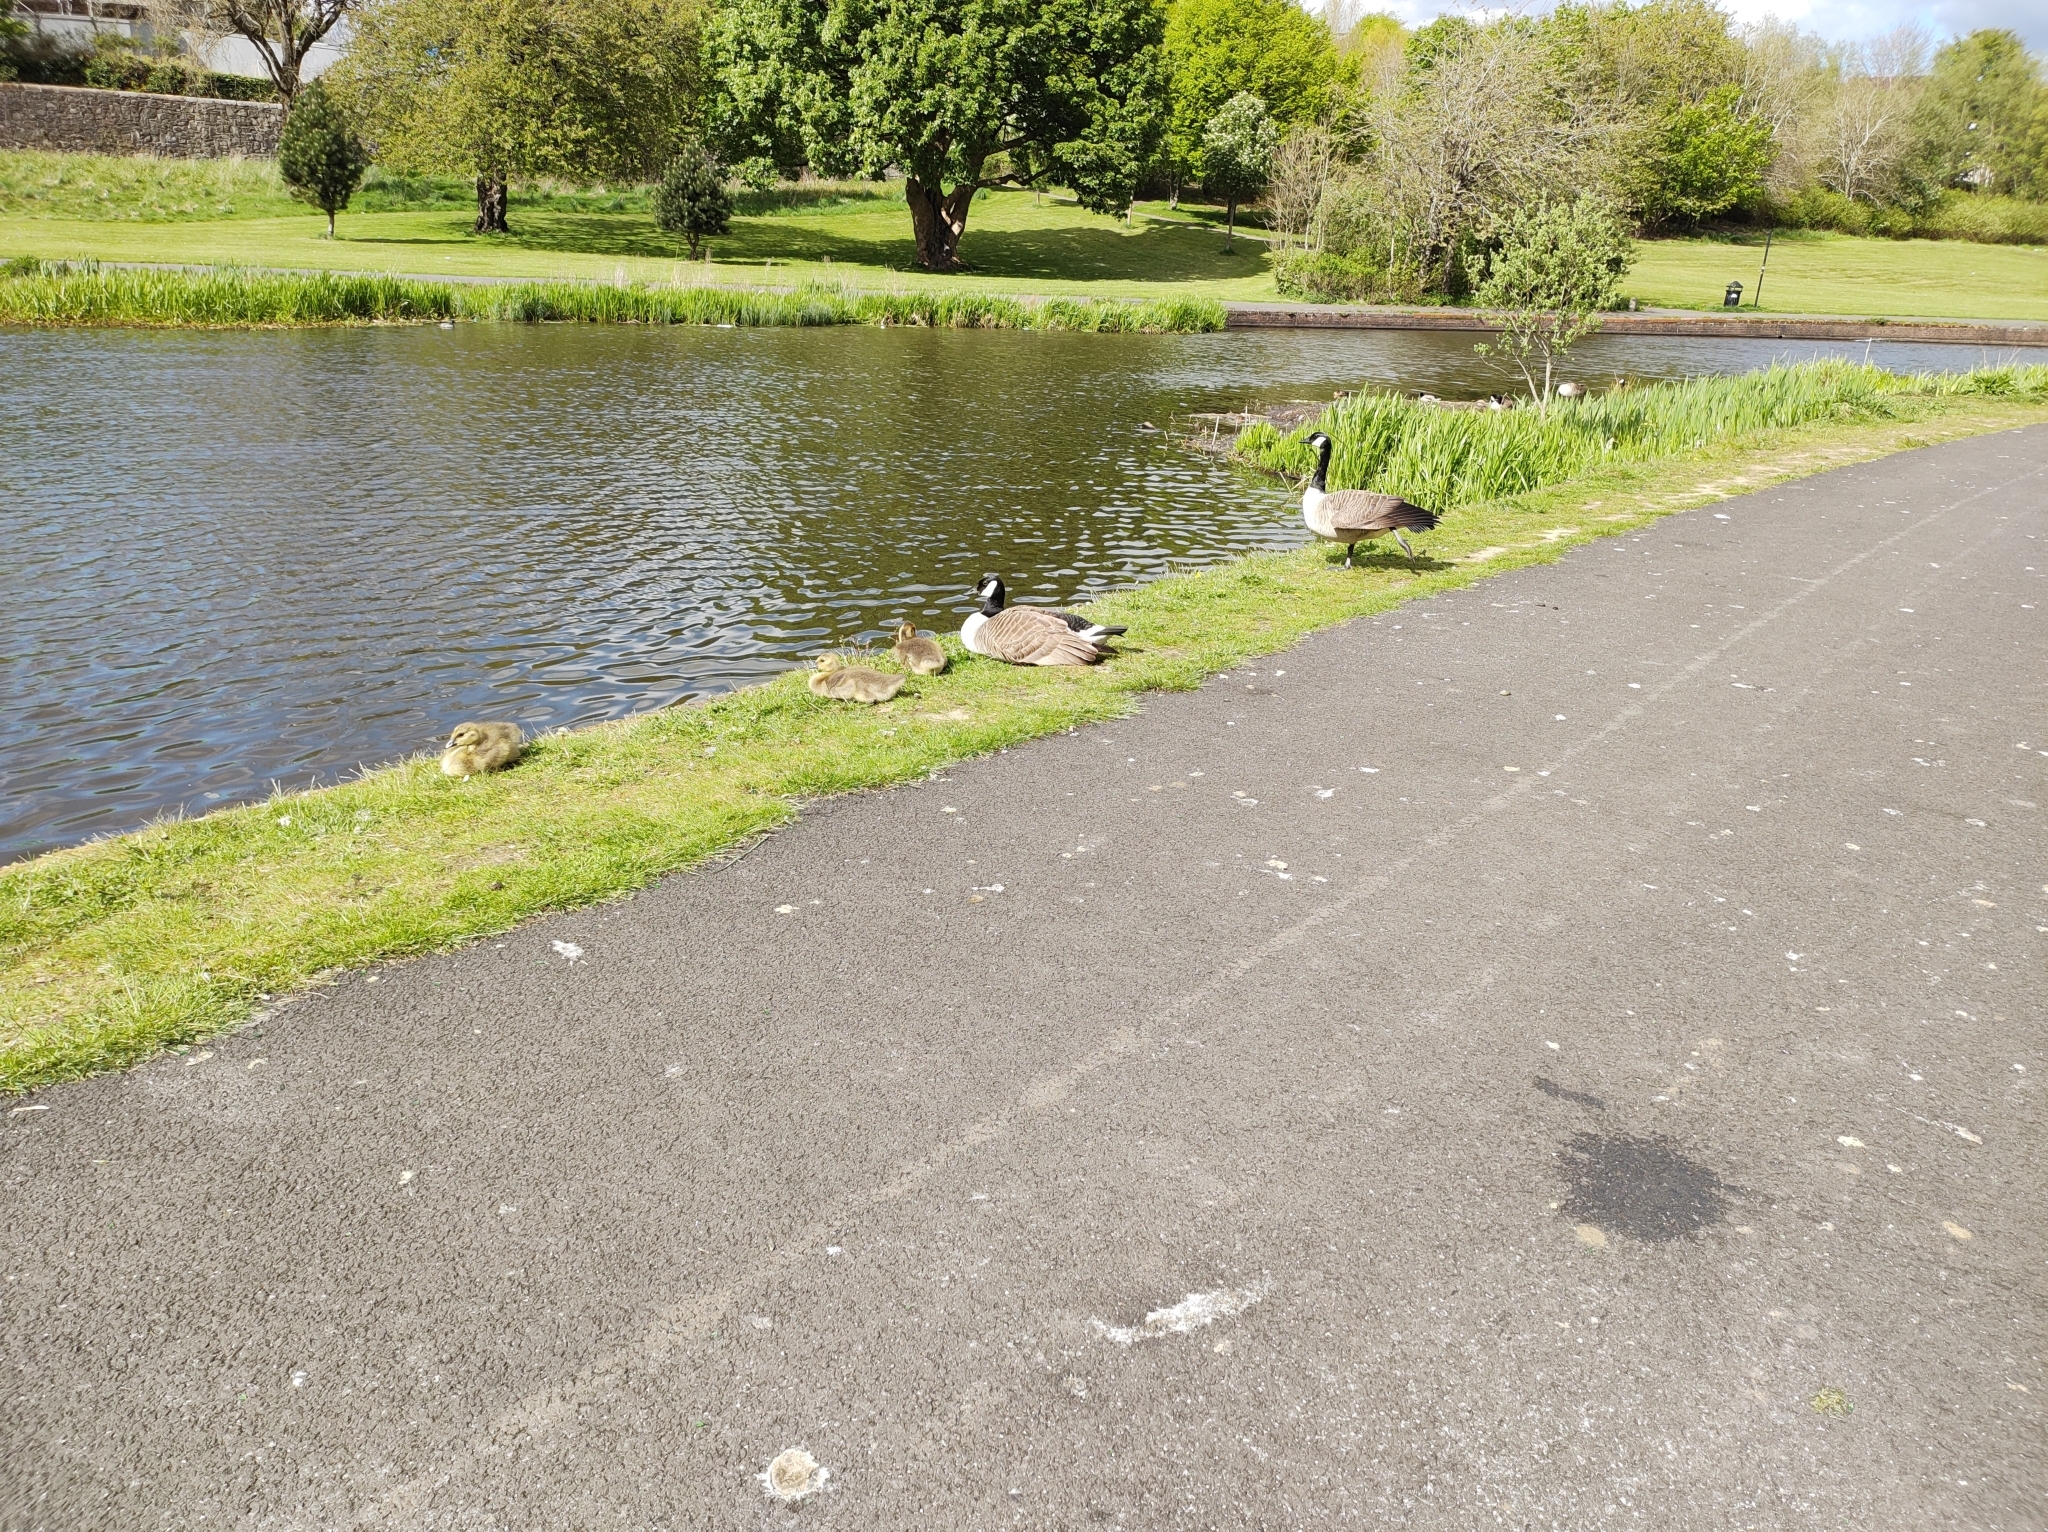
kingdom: Animalia
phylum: Chordata
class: Aves
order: Anseriformes
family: Anatidae
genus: Branta
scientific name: Branta canadensis
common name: Canada goose
